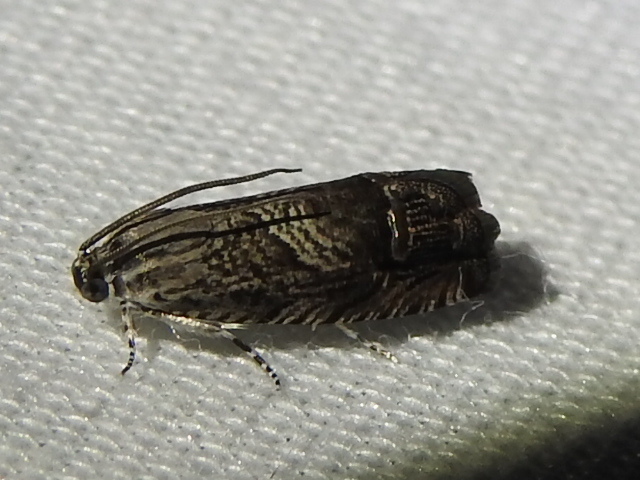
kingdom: Animalia
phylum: Arthropoda
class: Insecta
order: Lepidoptera
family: Tortricidae
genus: Ofatulena
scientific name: Ofatulena duodecemstriata
